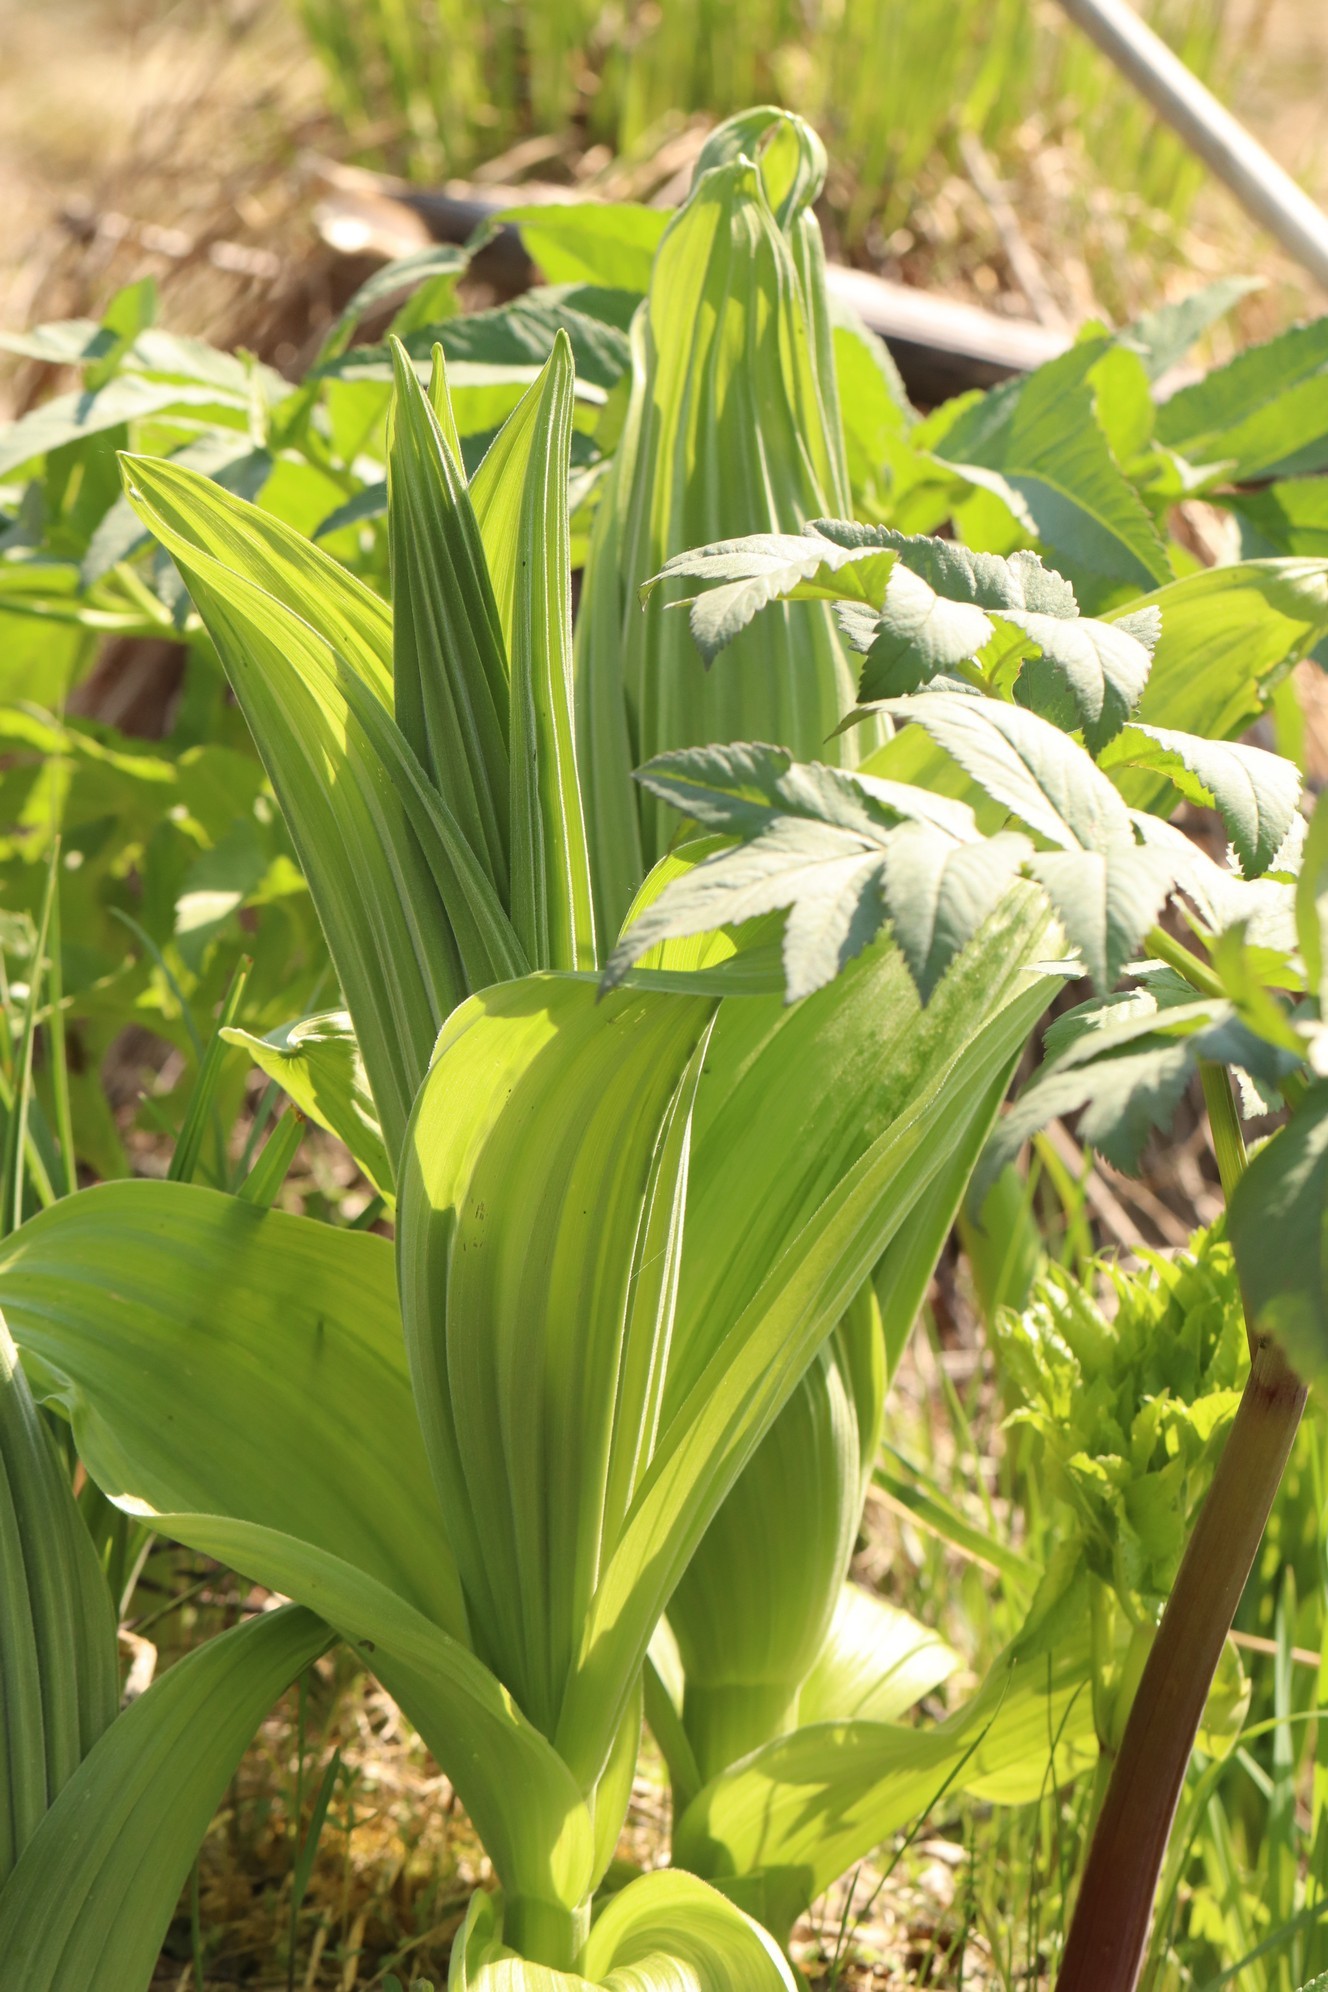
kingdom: Plantae
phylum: Tracheophyta
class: Liliopsida
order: Liliales
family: Melanthiaceae
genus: Veratrum
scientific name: Veratrum lobelianum
